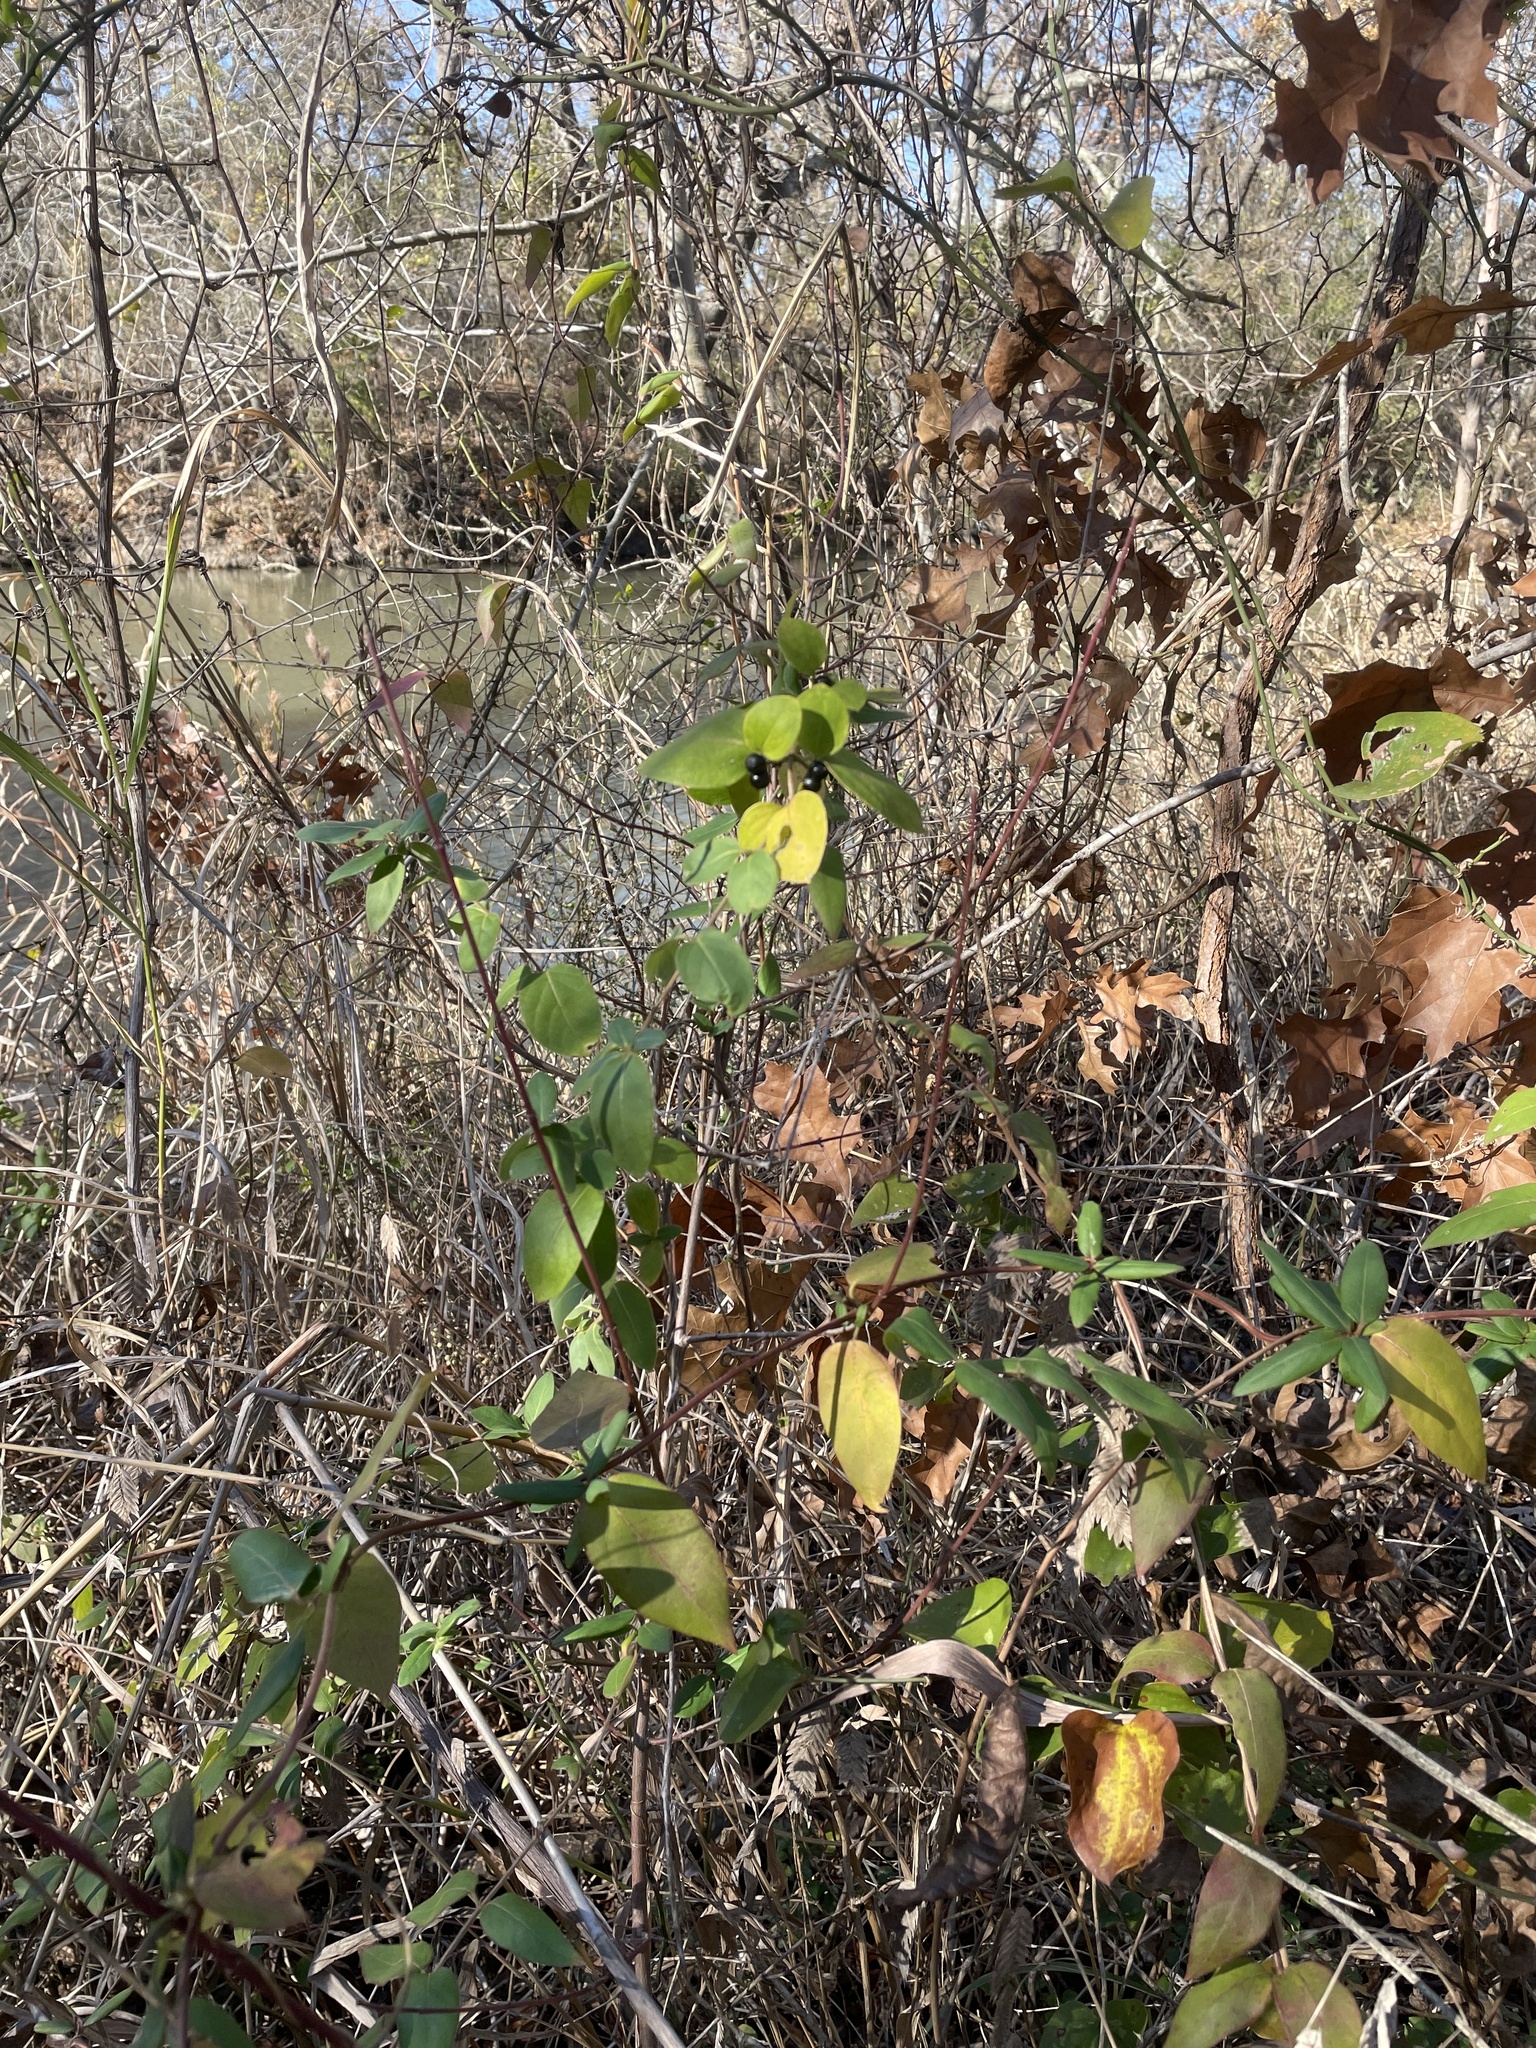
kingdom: Plantae
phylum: Tracheophyta
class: Magnoliopsida
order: Dipsacales
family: Caprifoliaceae
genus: Lonicera
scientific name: Lonicera japonica
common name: Japanese honeysuckle
